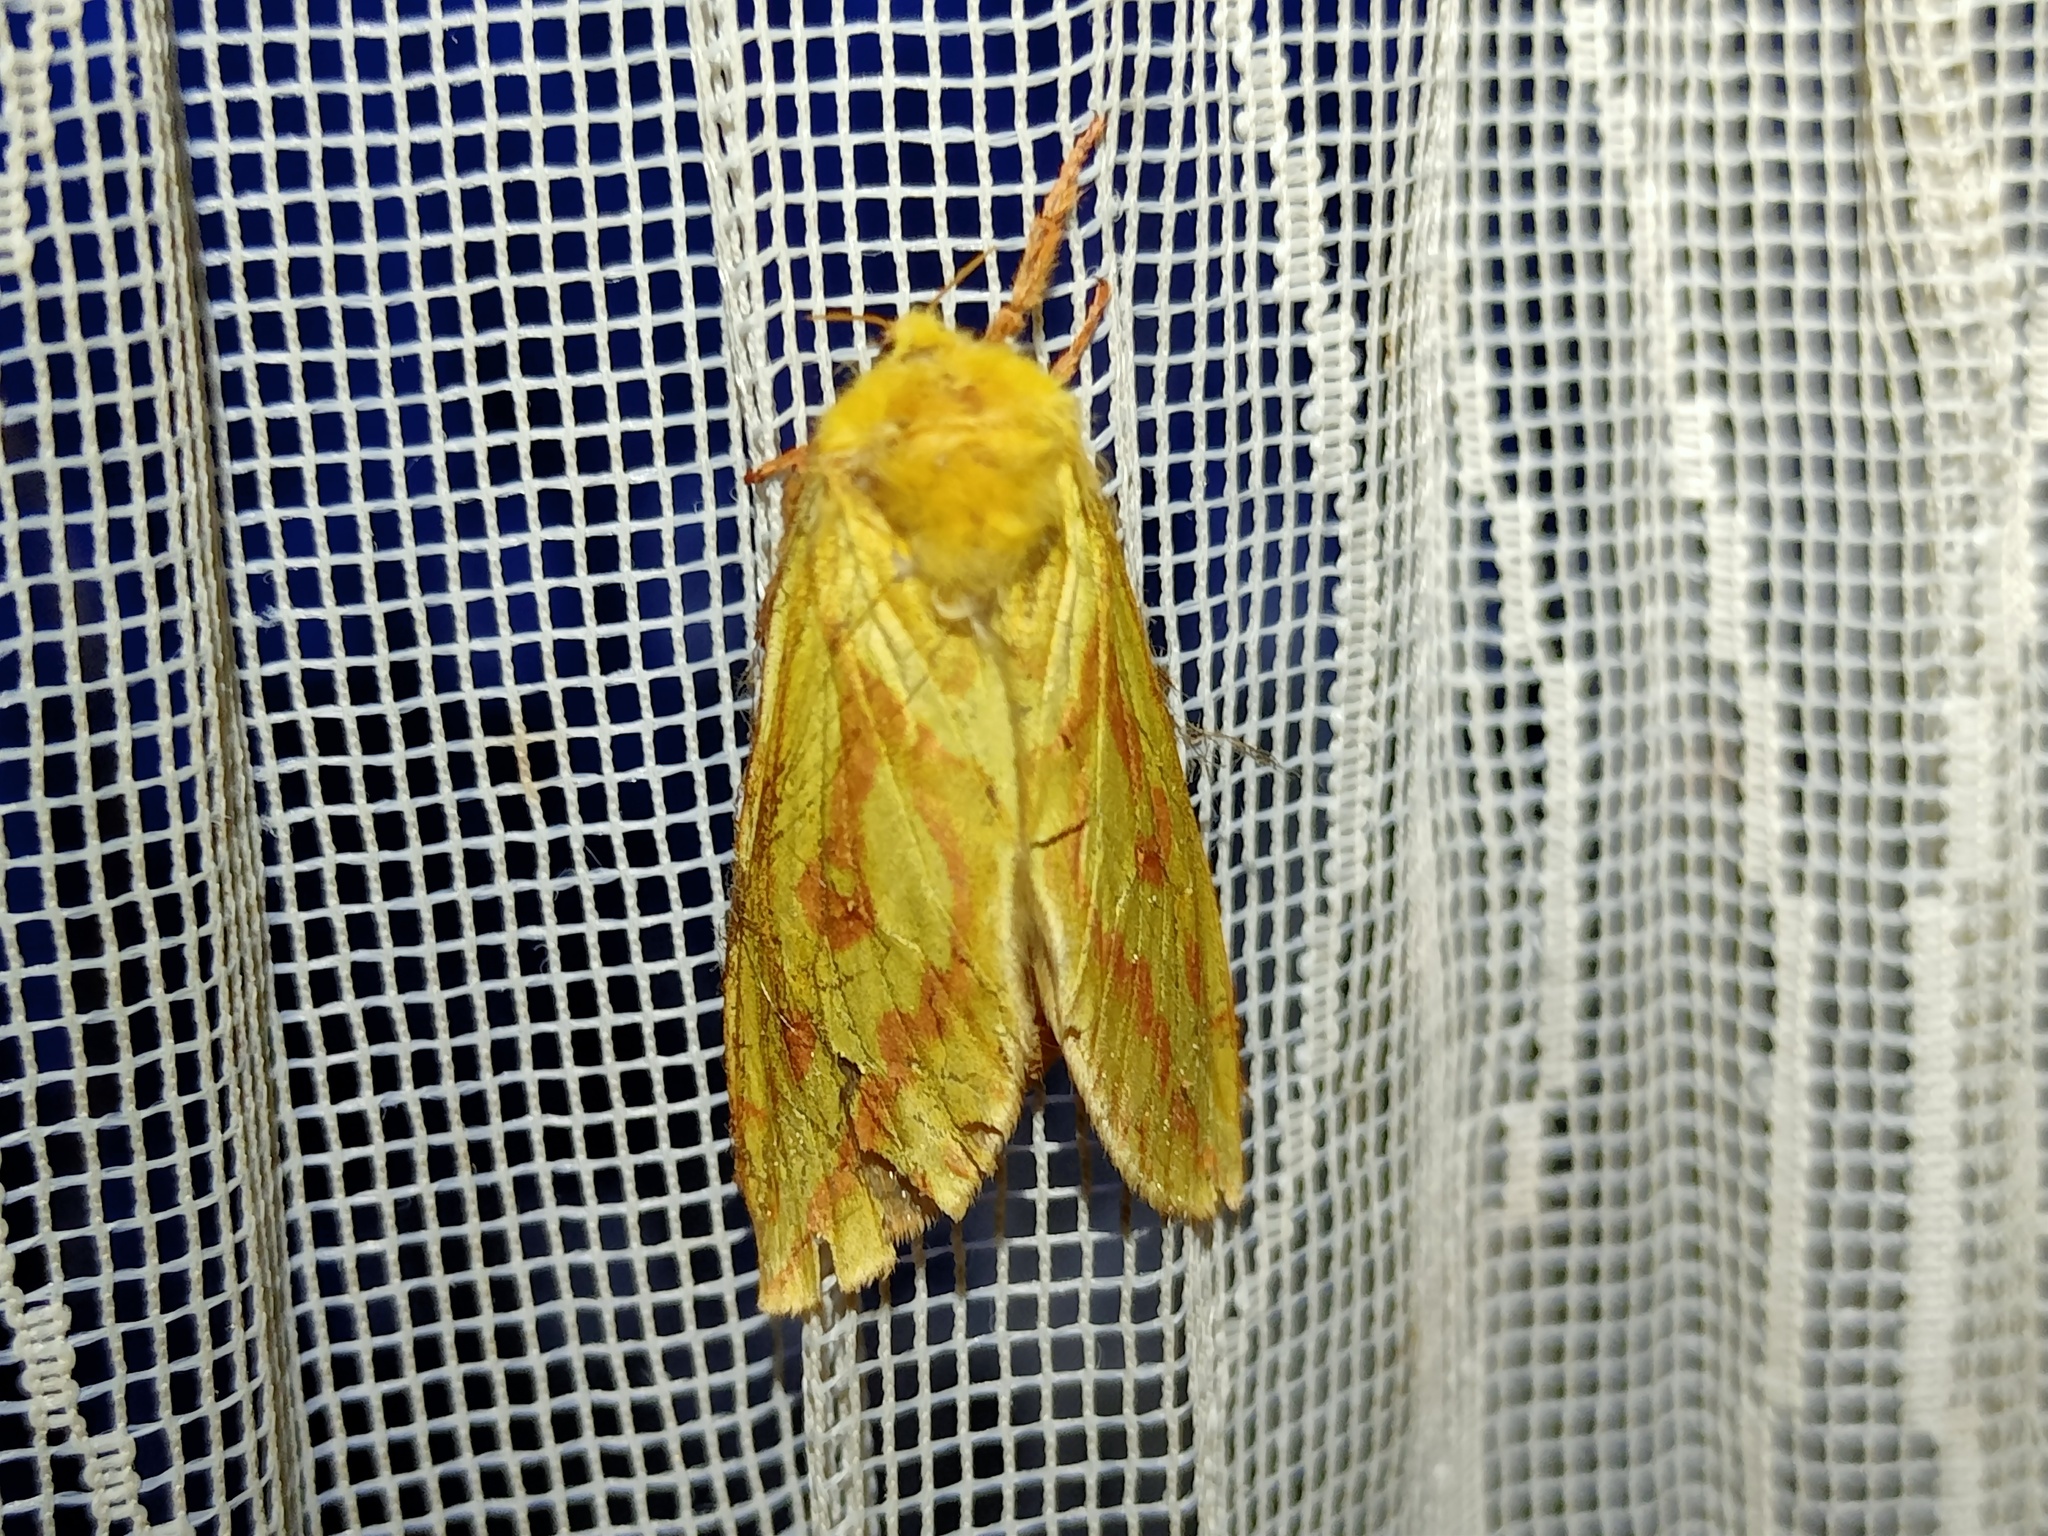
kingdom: Animalia
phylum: Arthropoda
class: Insecta
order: Lepidoptera
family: Hepialidae
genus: Hepialus
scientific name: Hepialus humuli
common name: Ghost moth
